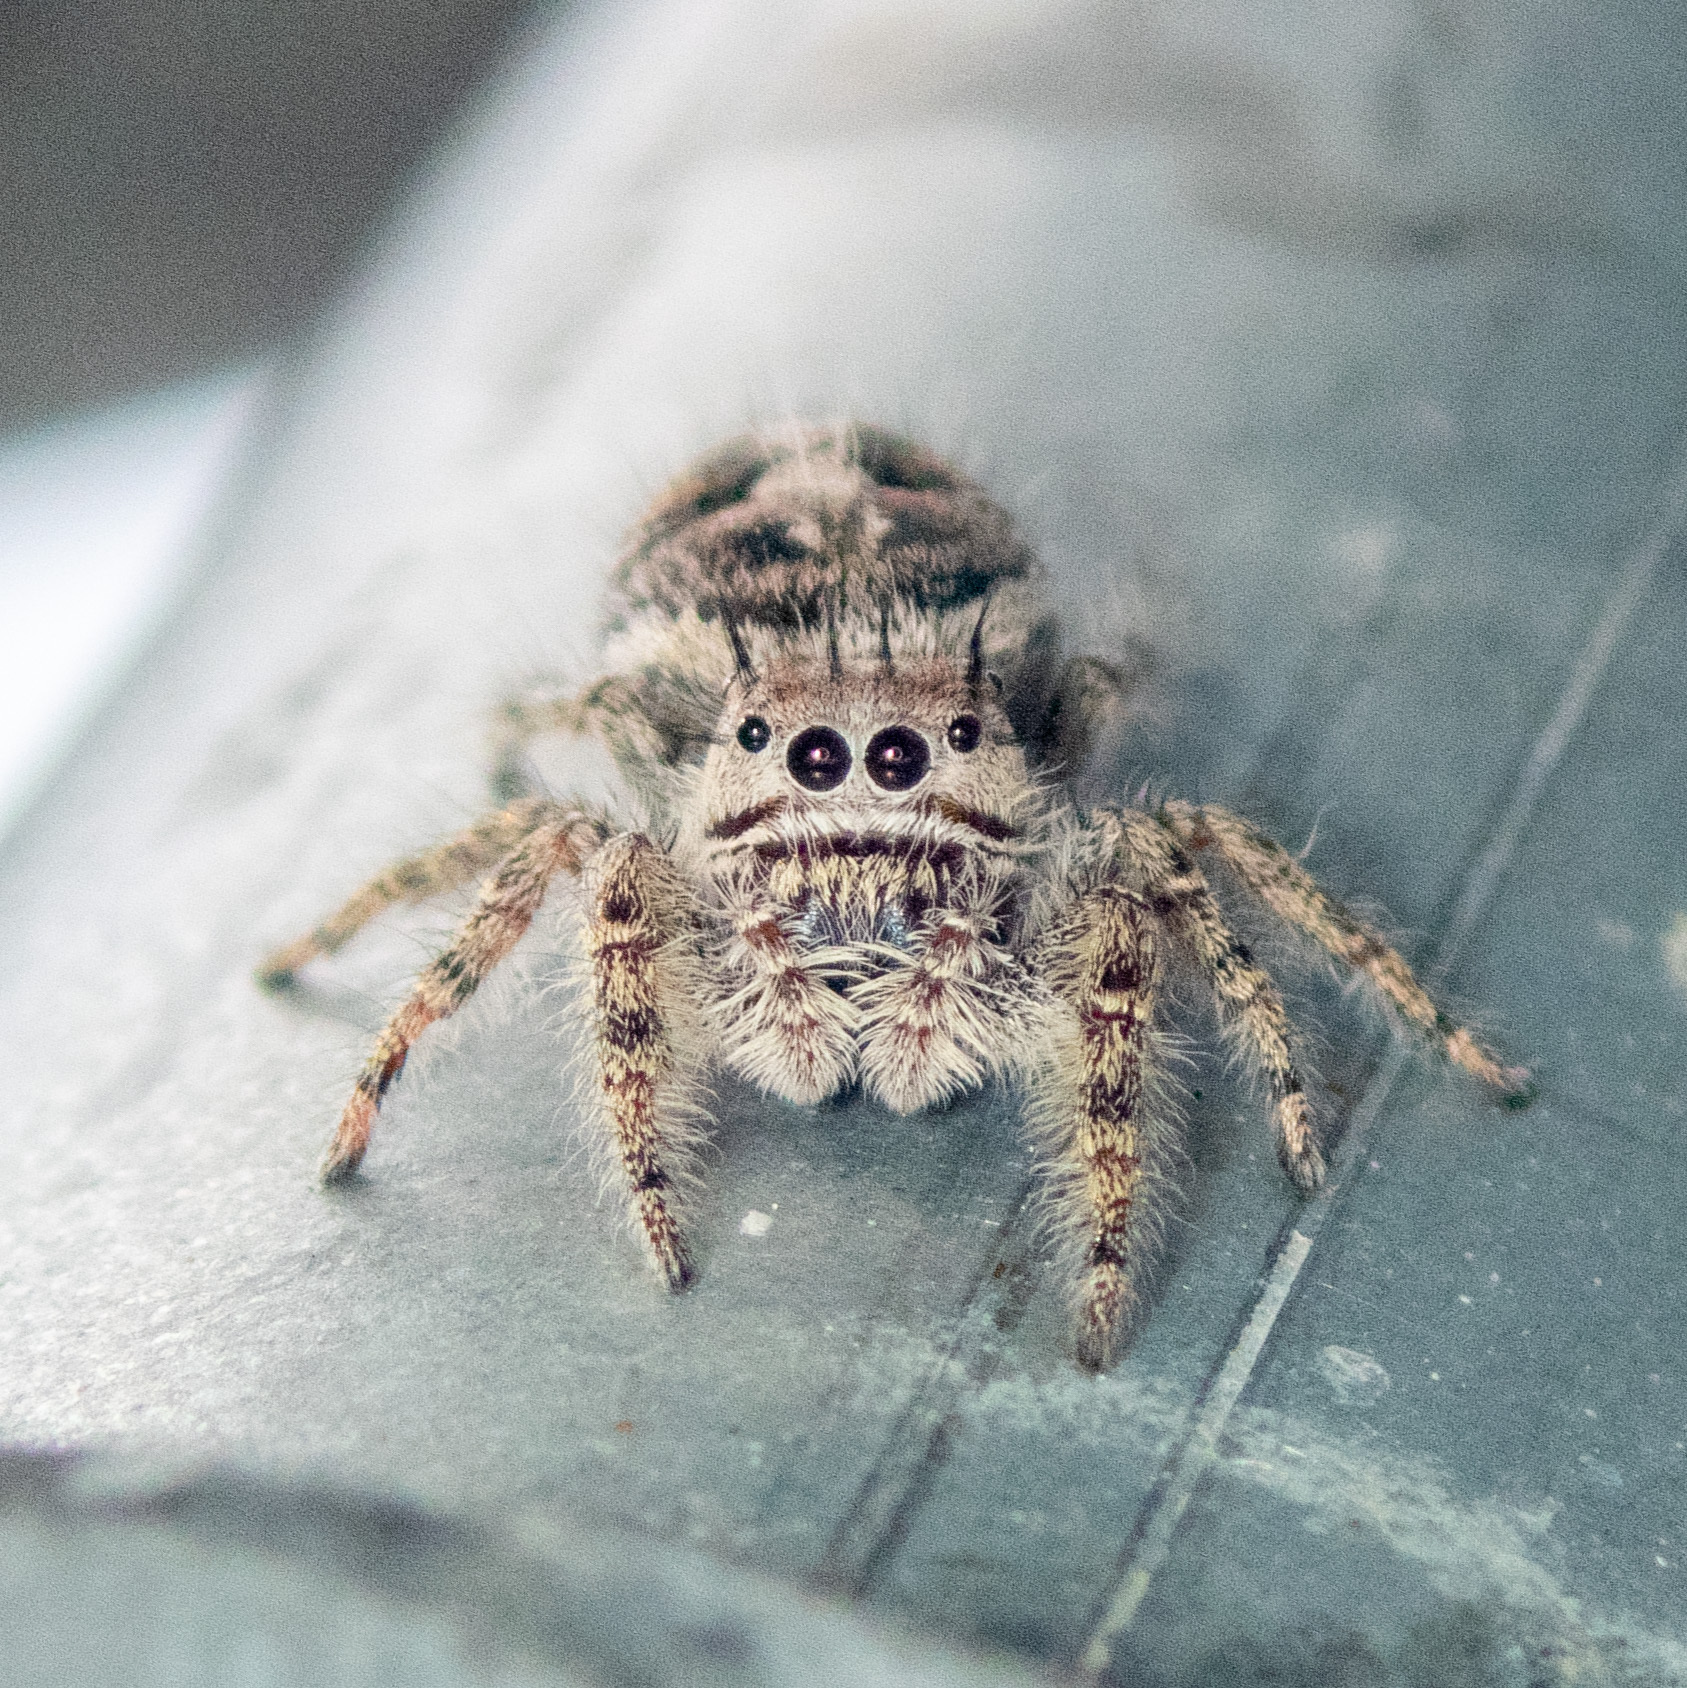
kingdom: Animalia
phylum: Arthropoda
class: Arachnida
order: Araneae
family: Salticidae
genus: Phidippus
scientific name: Phidippus putnami
